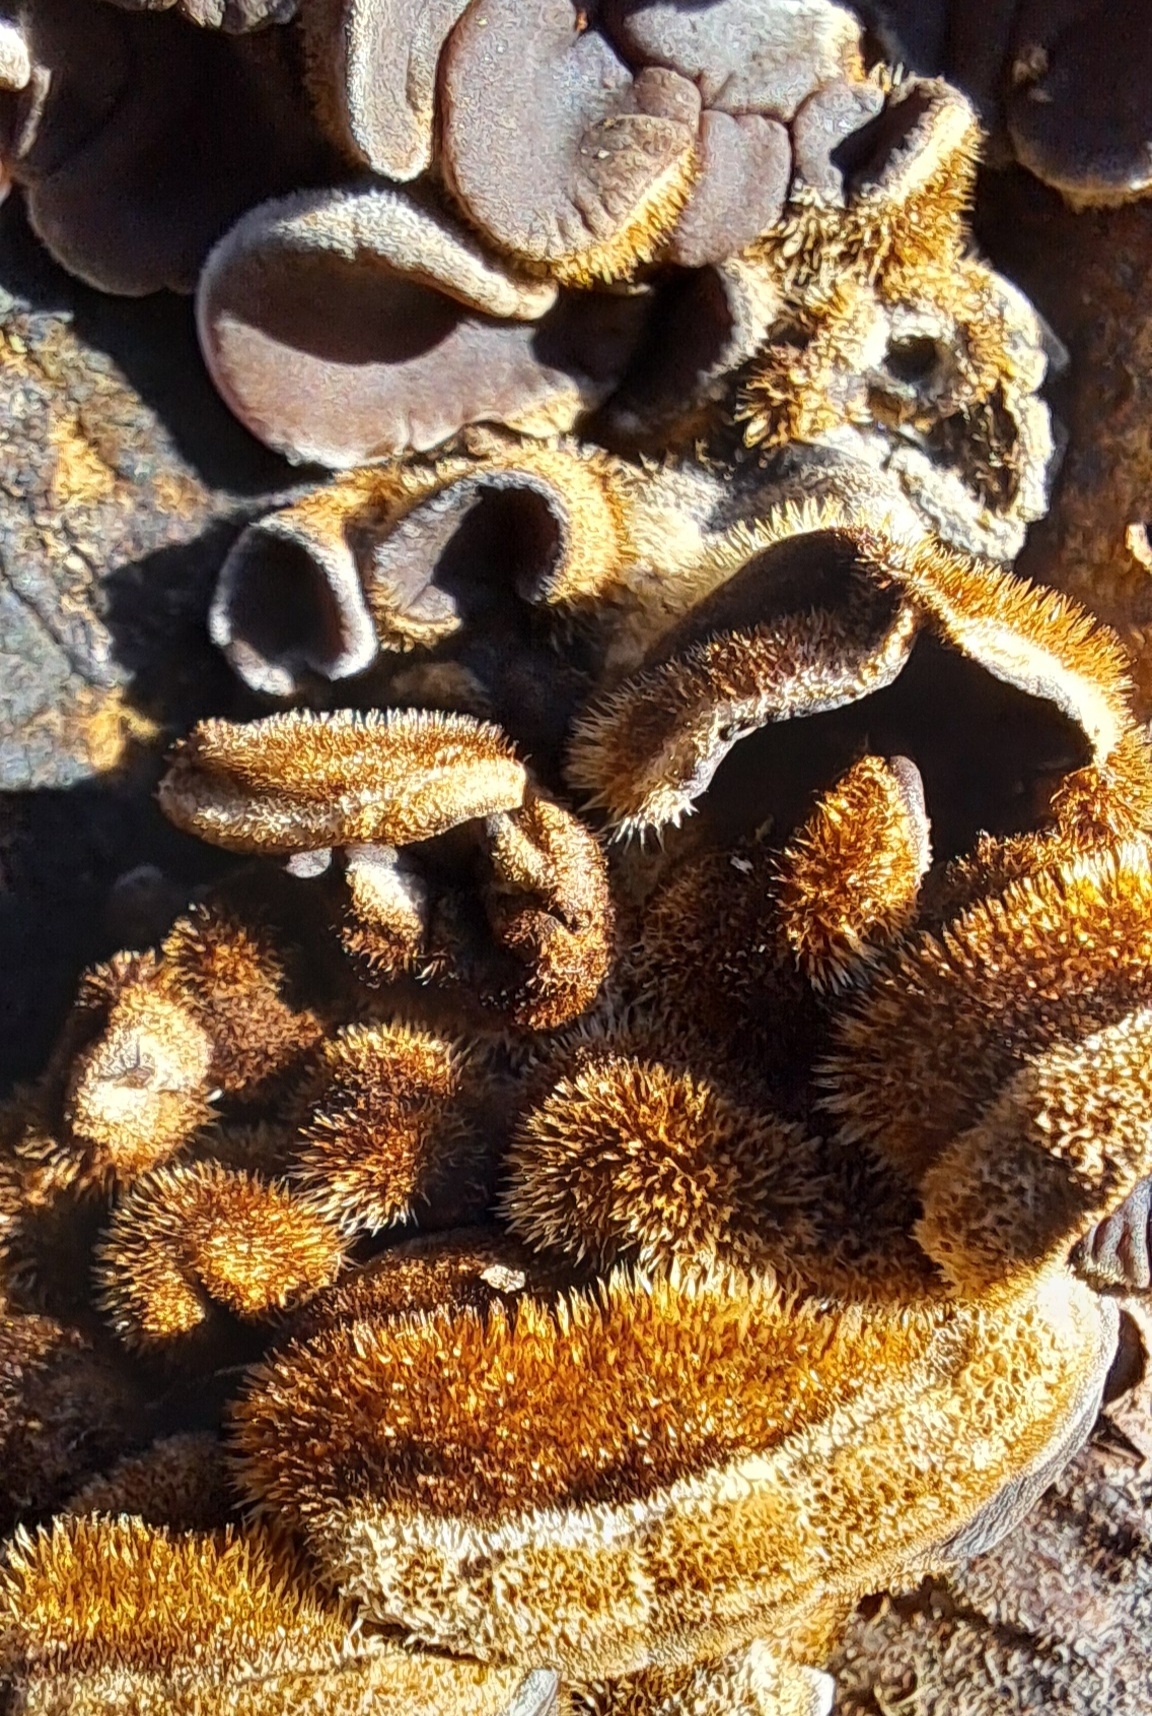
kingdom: Fungi
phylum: Basidiomycota
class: Agaricomycetes
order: Auriculariales
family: Auriculariaceae
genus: Auricularia
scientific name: Auricularia mesenterica
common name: Tripe fungus
